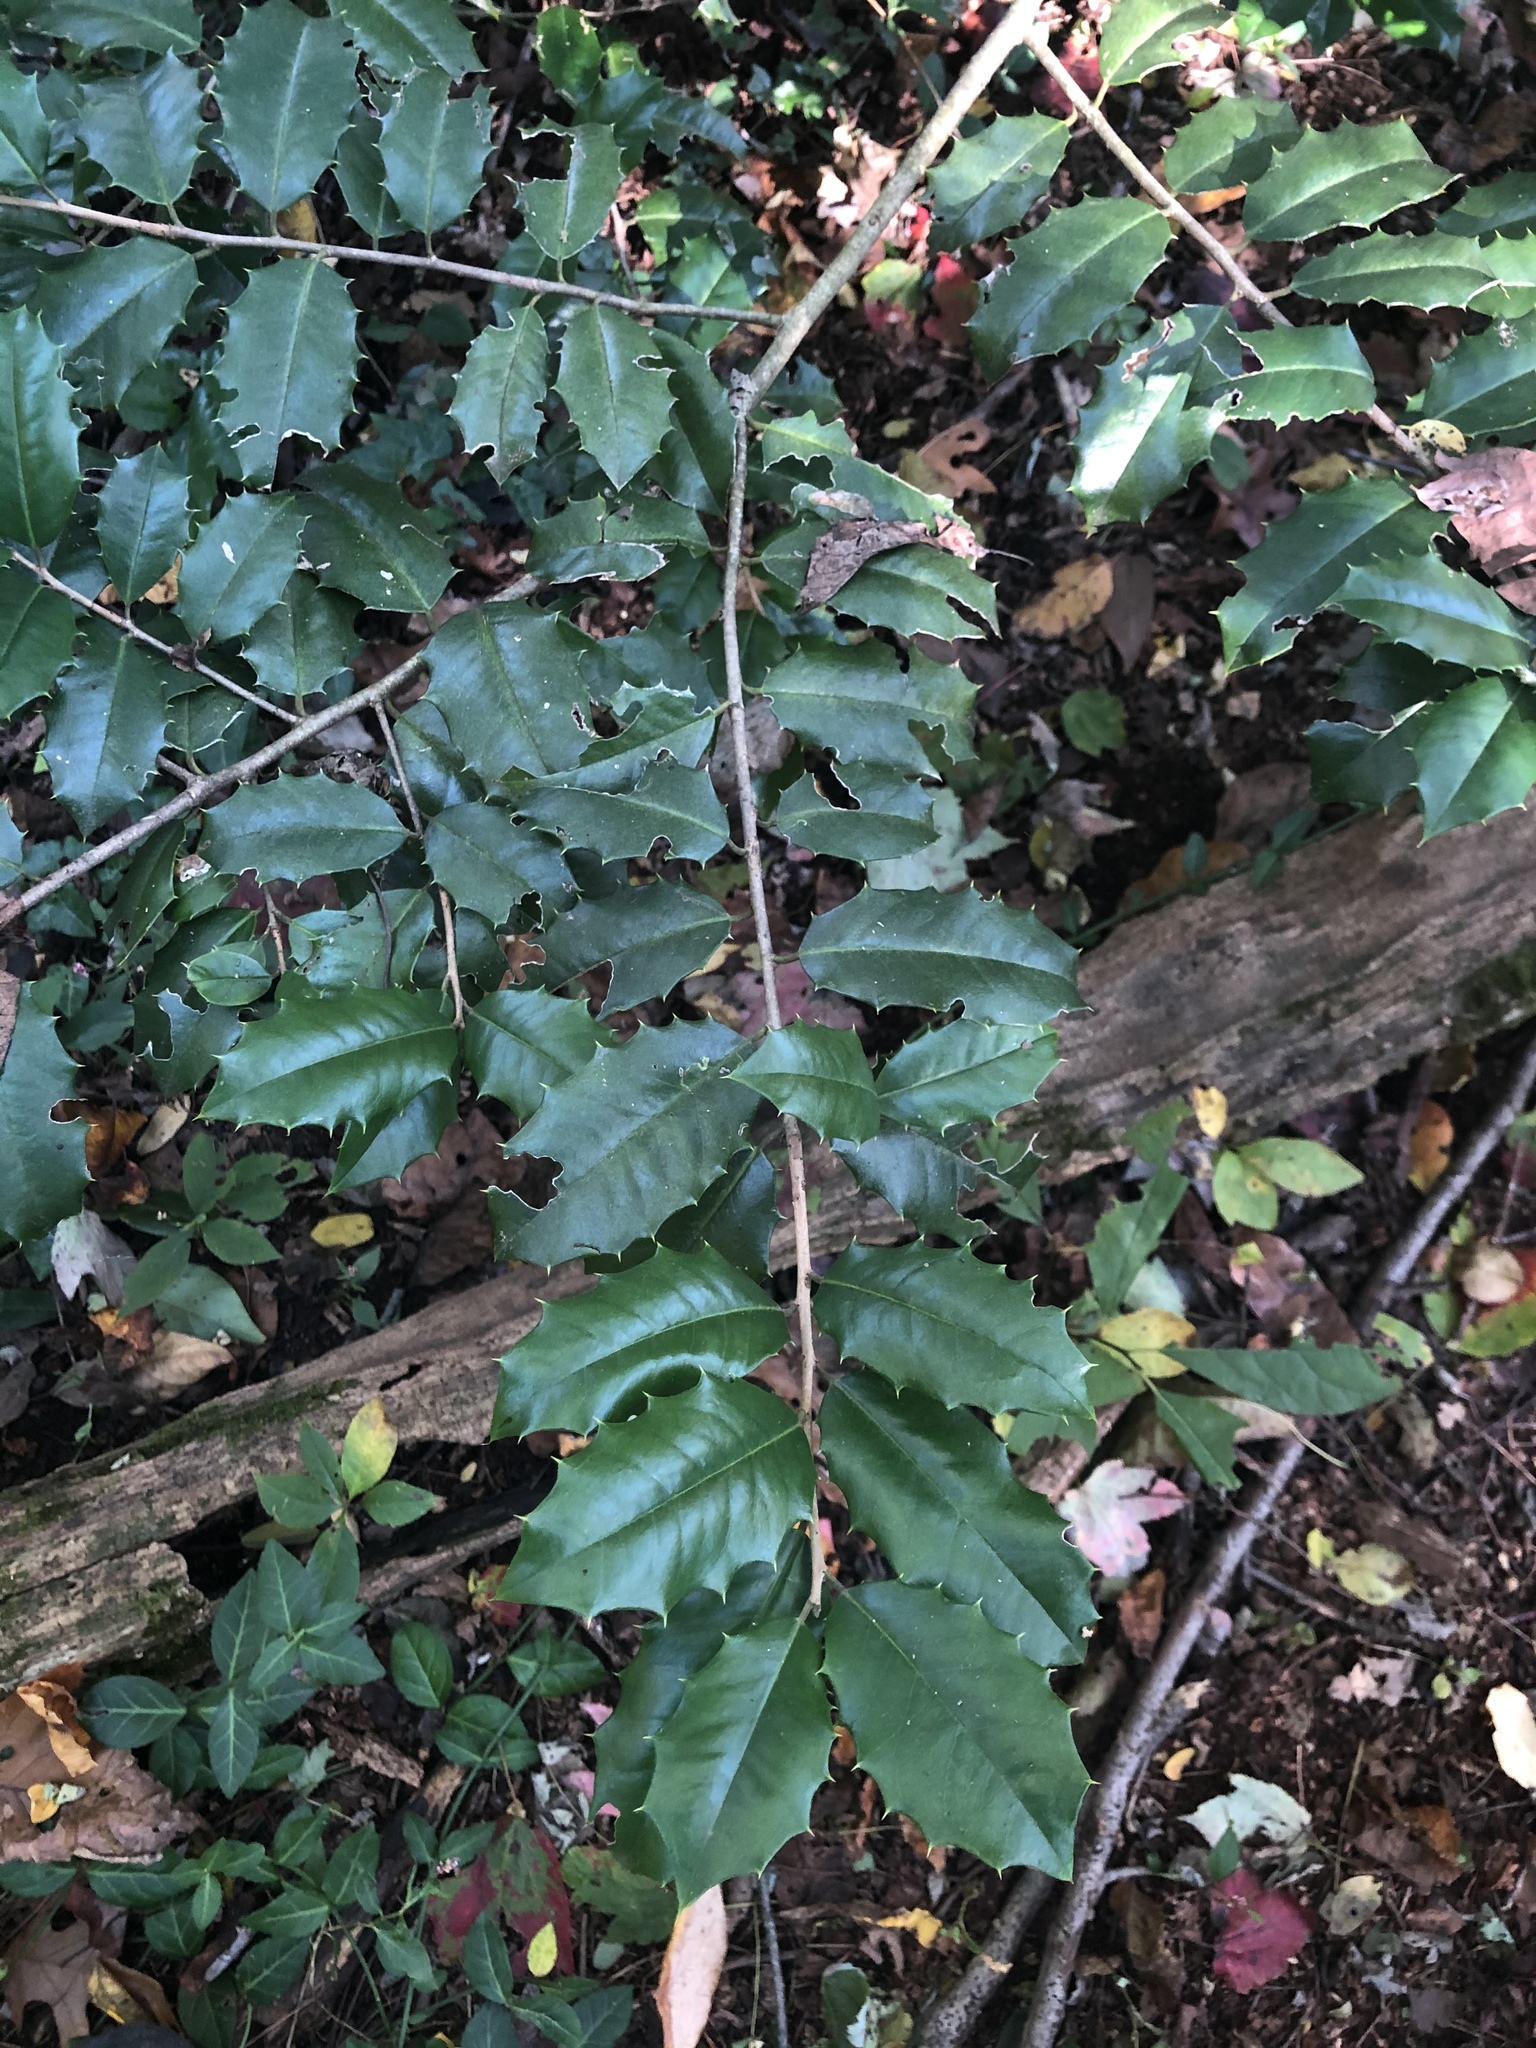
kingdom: Plantae
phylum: Tracheophyta
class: Magnoliopsida
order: Aquifoliales
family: Aquifoliaceae
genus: Ilex
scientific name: Ilex opaca
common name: American holly
